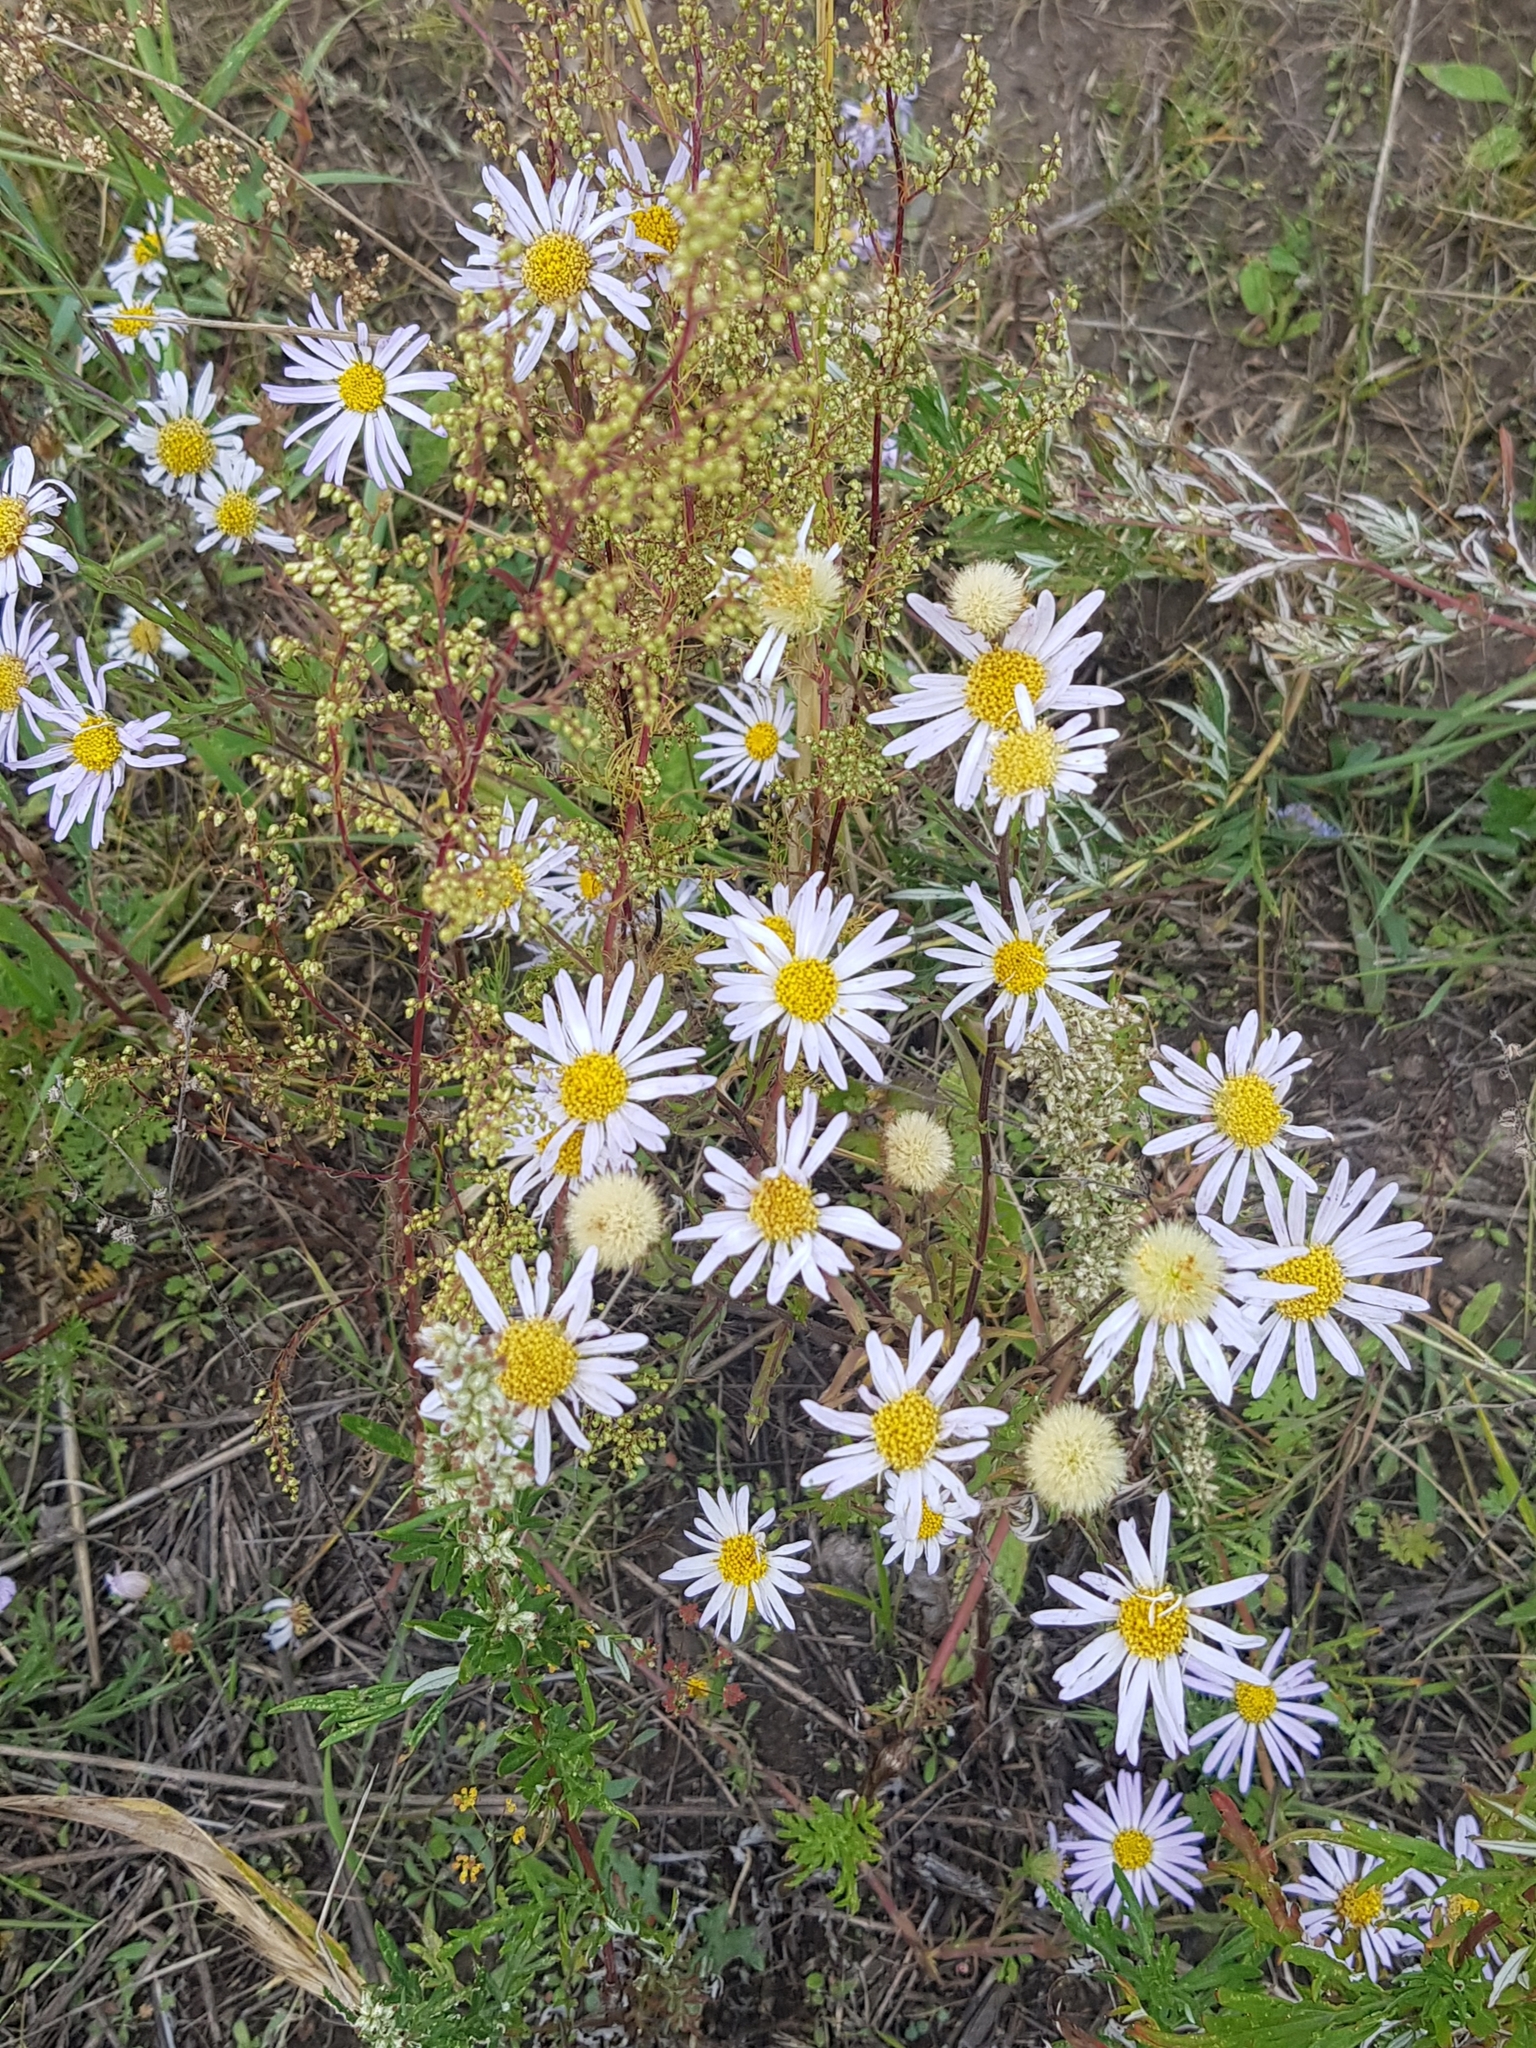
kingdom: Plantae
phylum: Tracheophyta
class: Magnoliopsida
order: Asterales
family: Asteraceae
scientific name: Asteraceae
